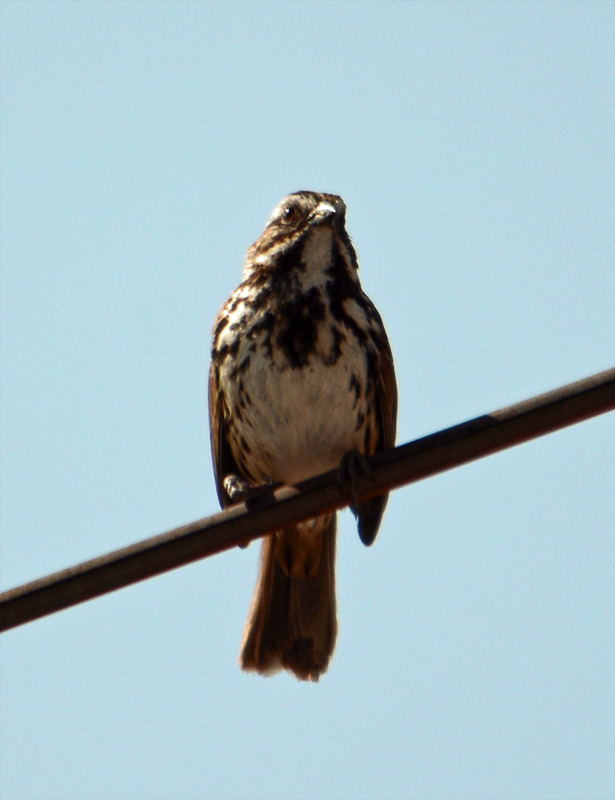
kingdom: Animalia
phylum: Chordata
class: Aves
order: Passeriformes
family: Passerellidae
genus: Melospiza
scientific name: Melospiza melodia
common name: Song sparrow
